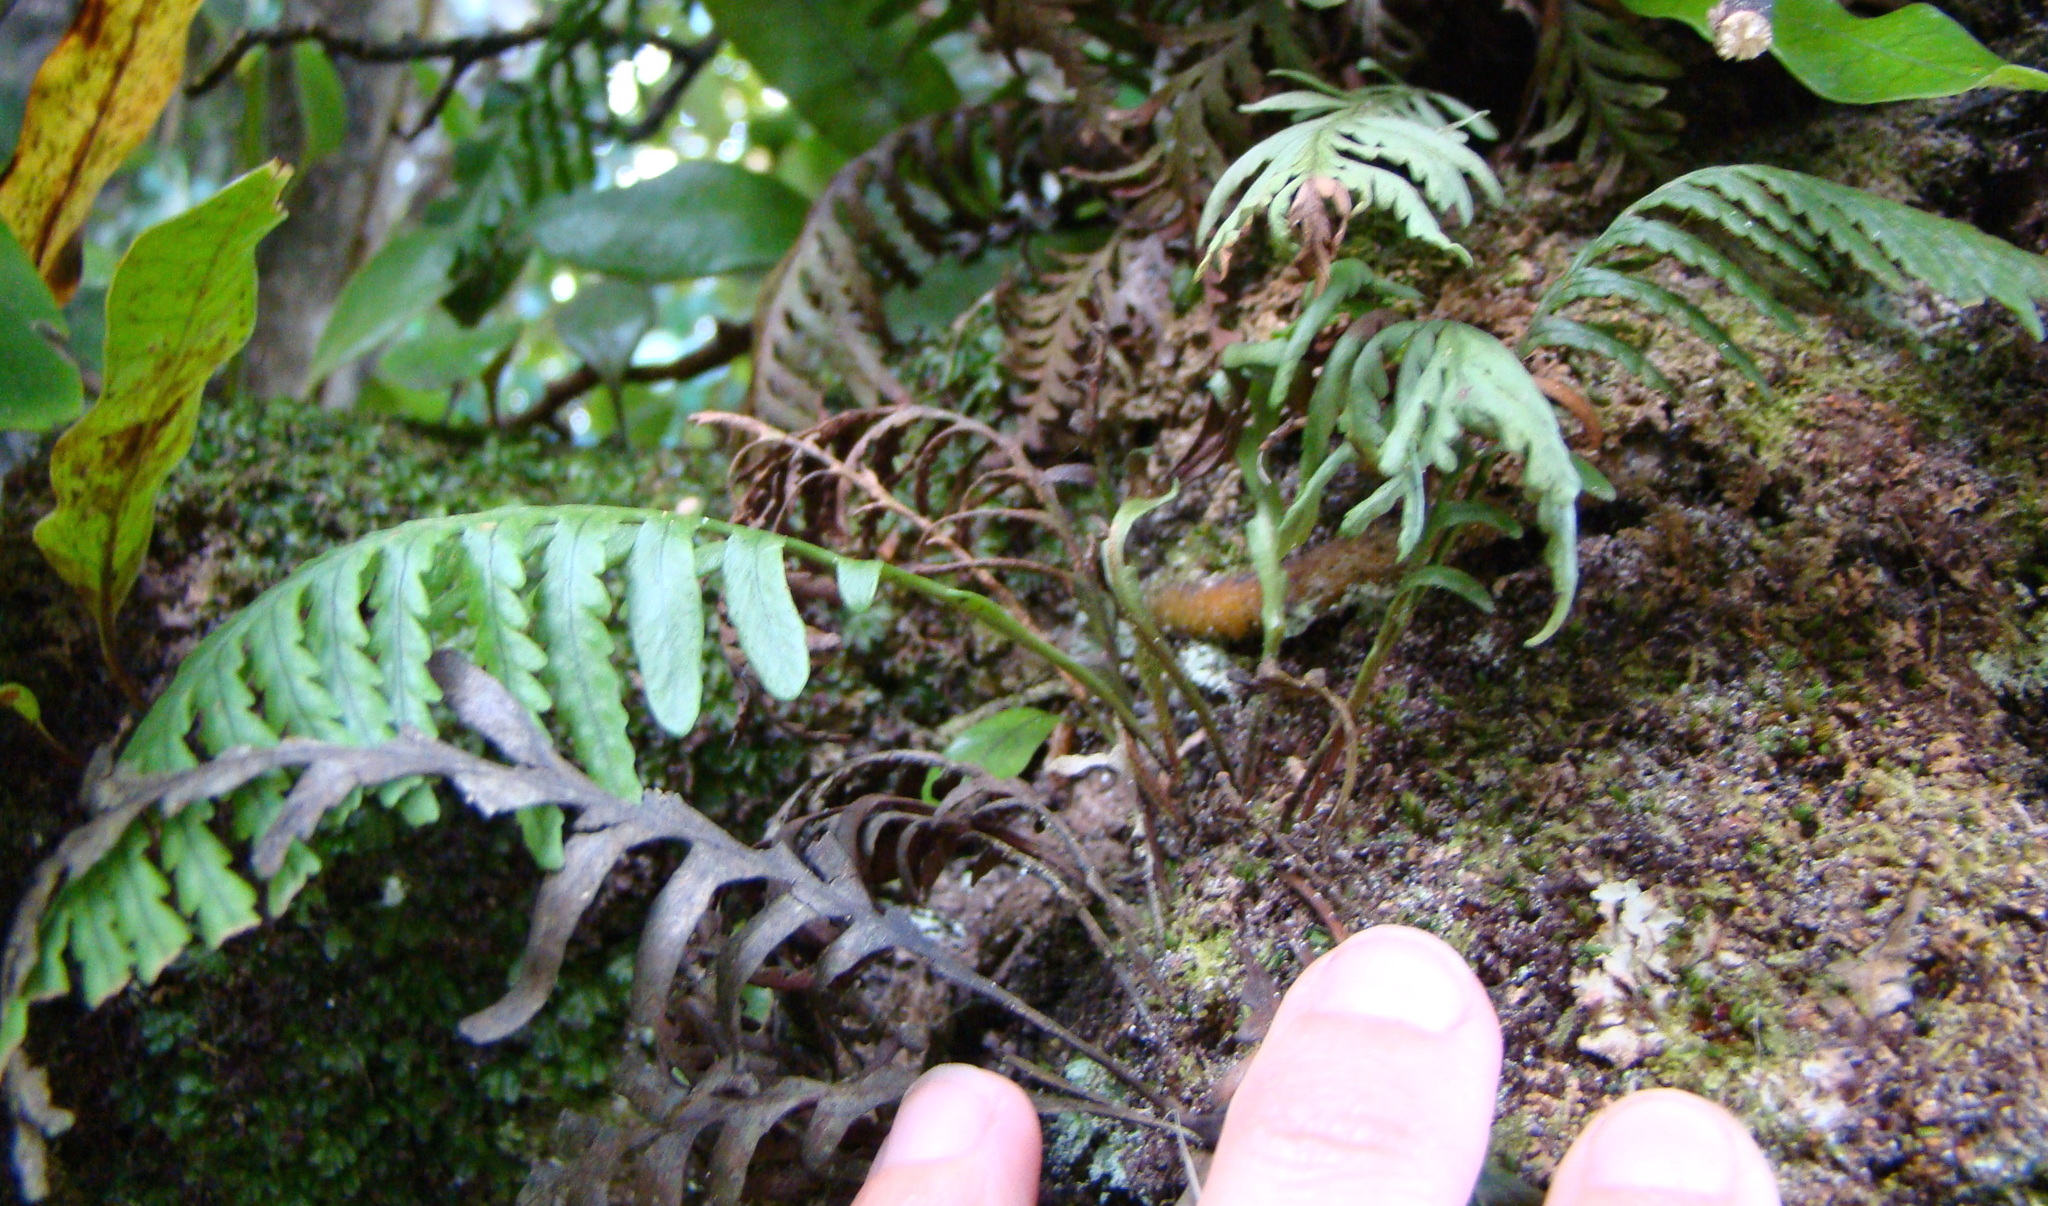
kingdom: Plantae
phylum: Tracheophyta
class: Polypodiopsida
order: Polypodiales
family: Polypodiaceae
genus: Notogrammitis
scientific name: Notogrammitis heterophylla
